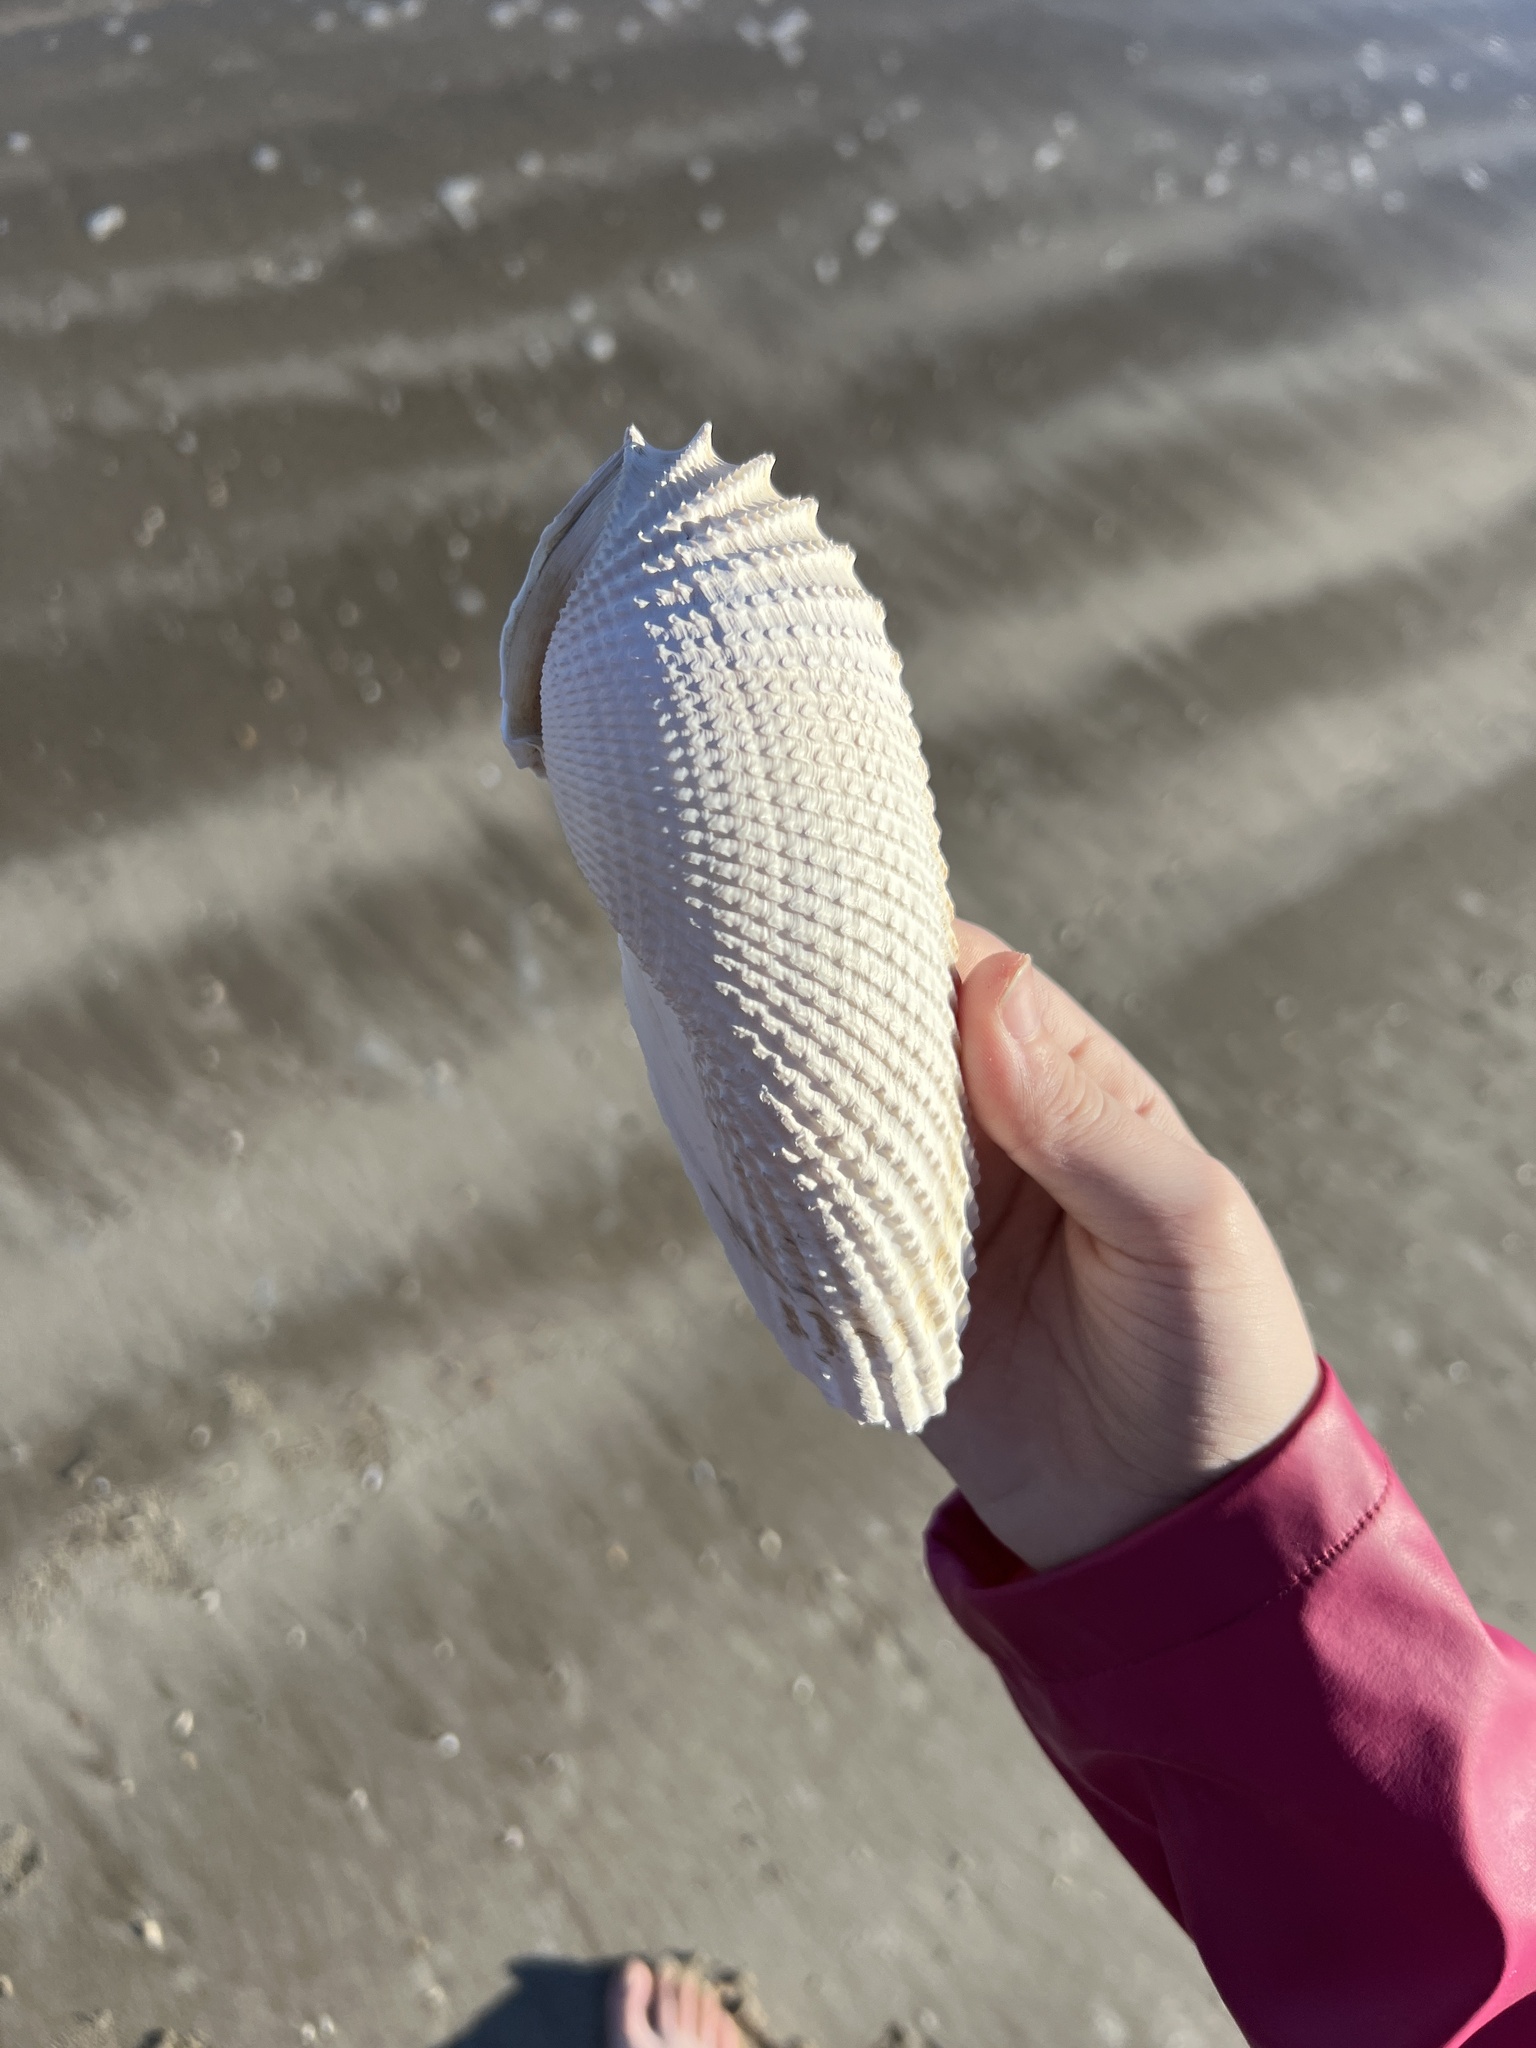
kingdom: Animalia
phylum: Mollusca
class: Bivalvia
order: Myida
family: Pholadidae
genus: Cyrtopleura
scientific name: Cyrtopleura costata
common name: Angel wing
